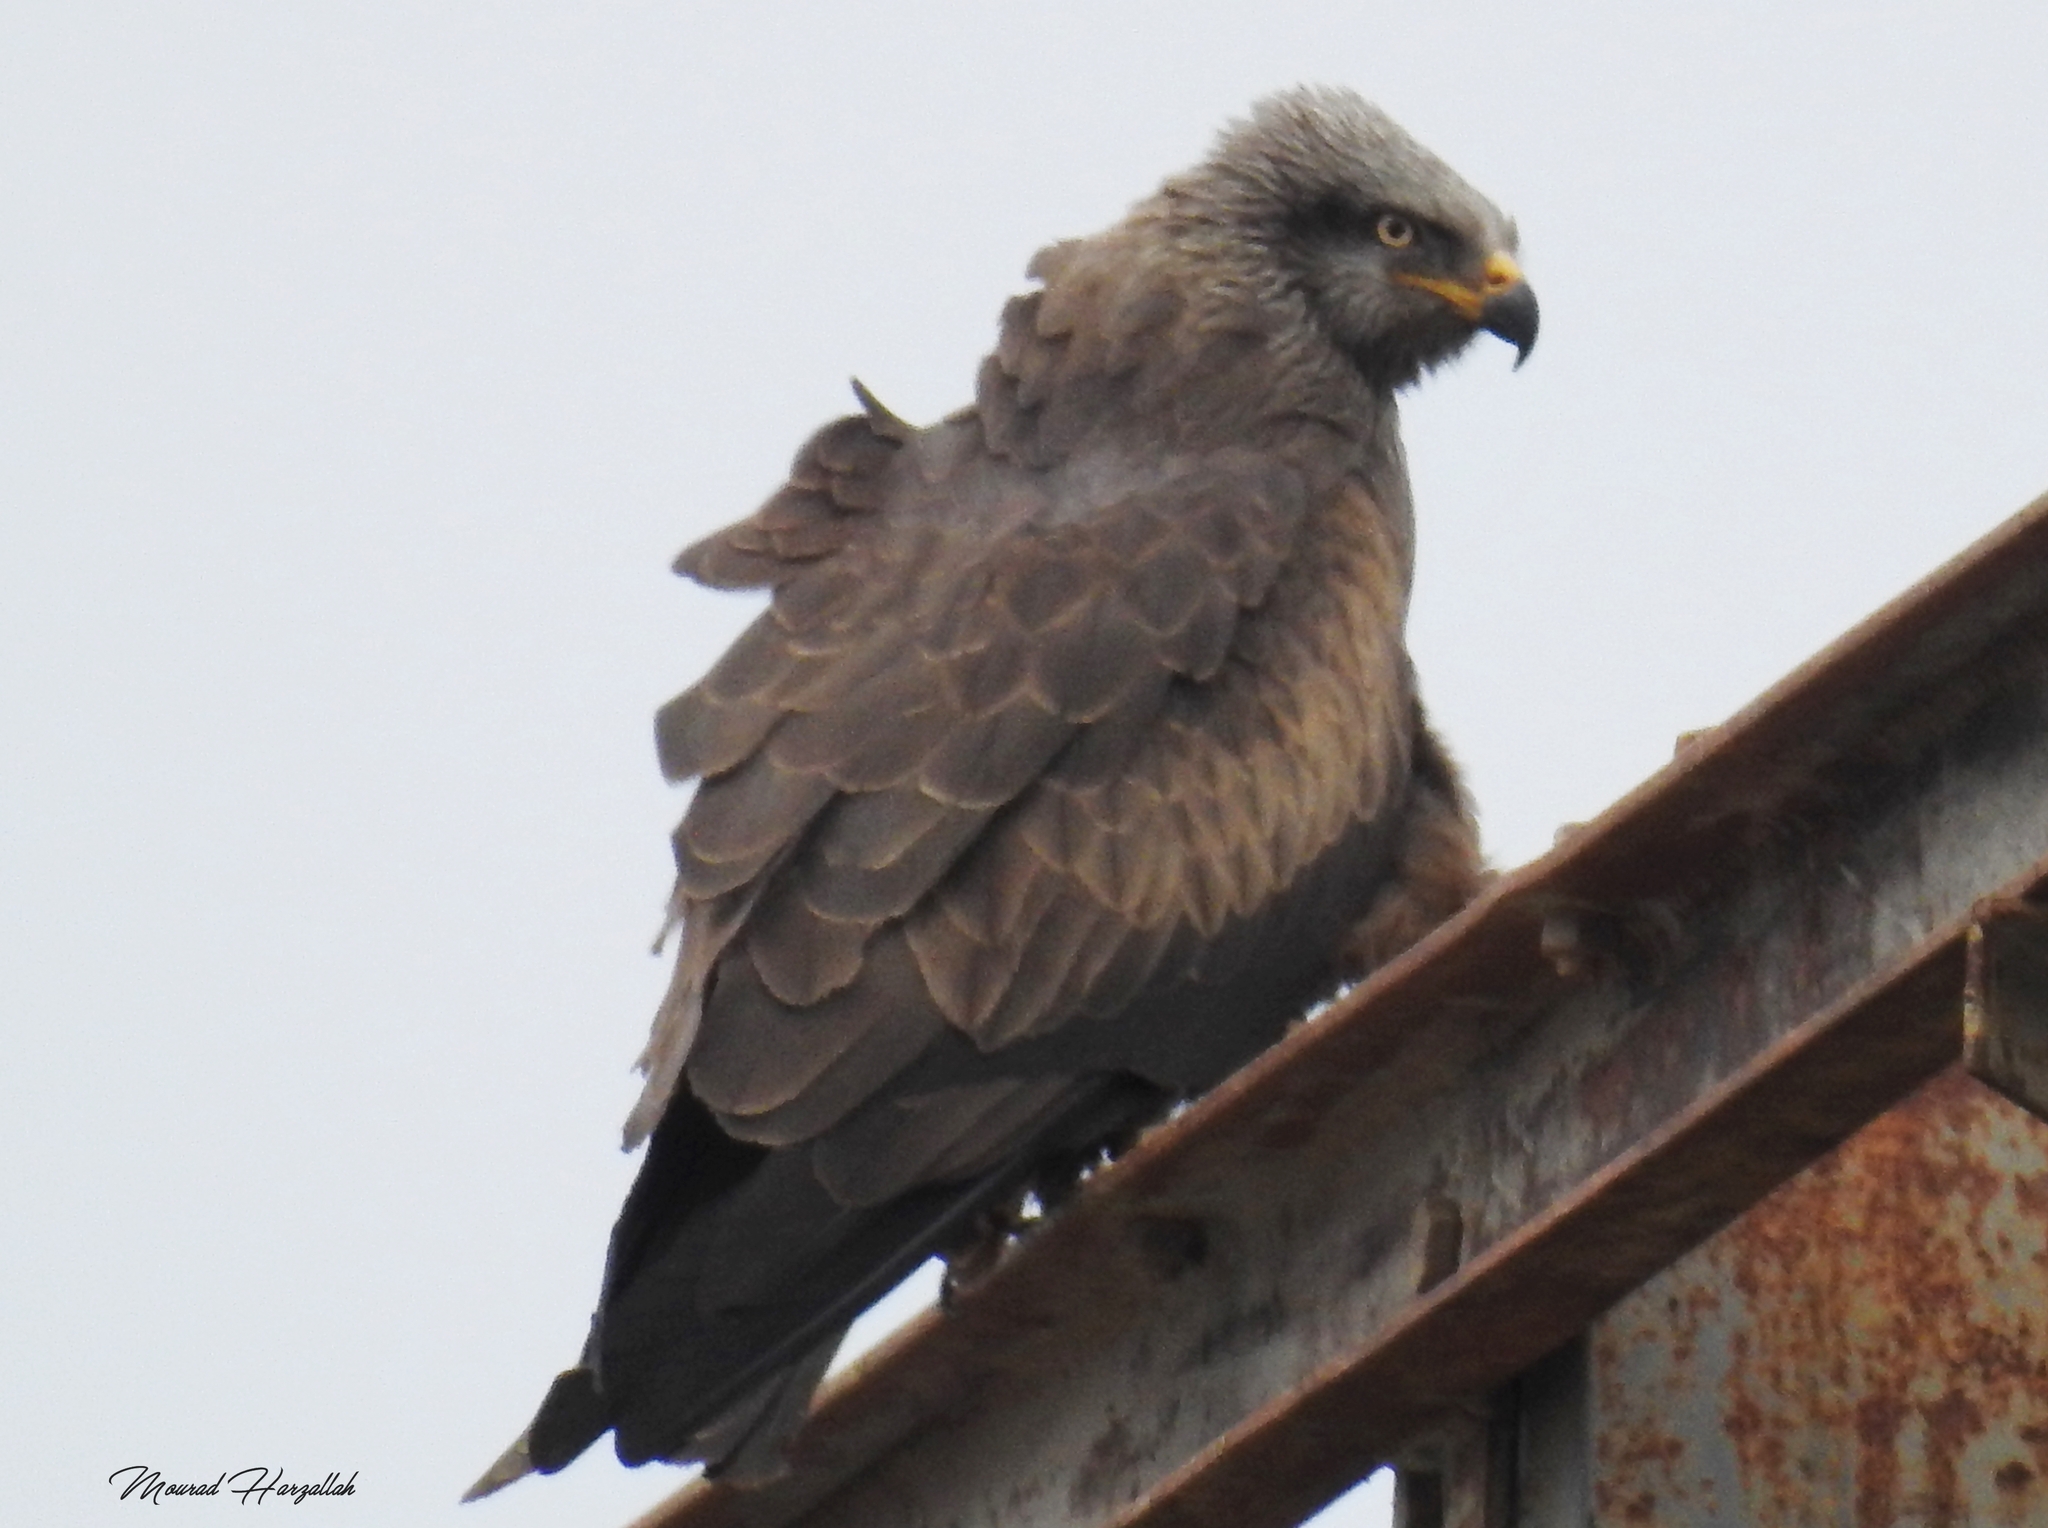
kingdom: Animalia
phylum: Chordata
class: Aves
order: Accipitriformes
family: Accipitridae
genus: Milvus
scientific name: Milvus migrans
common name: Black kite
